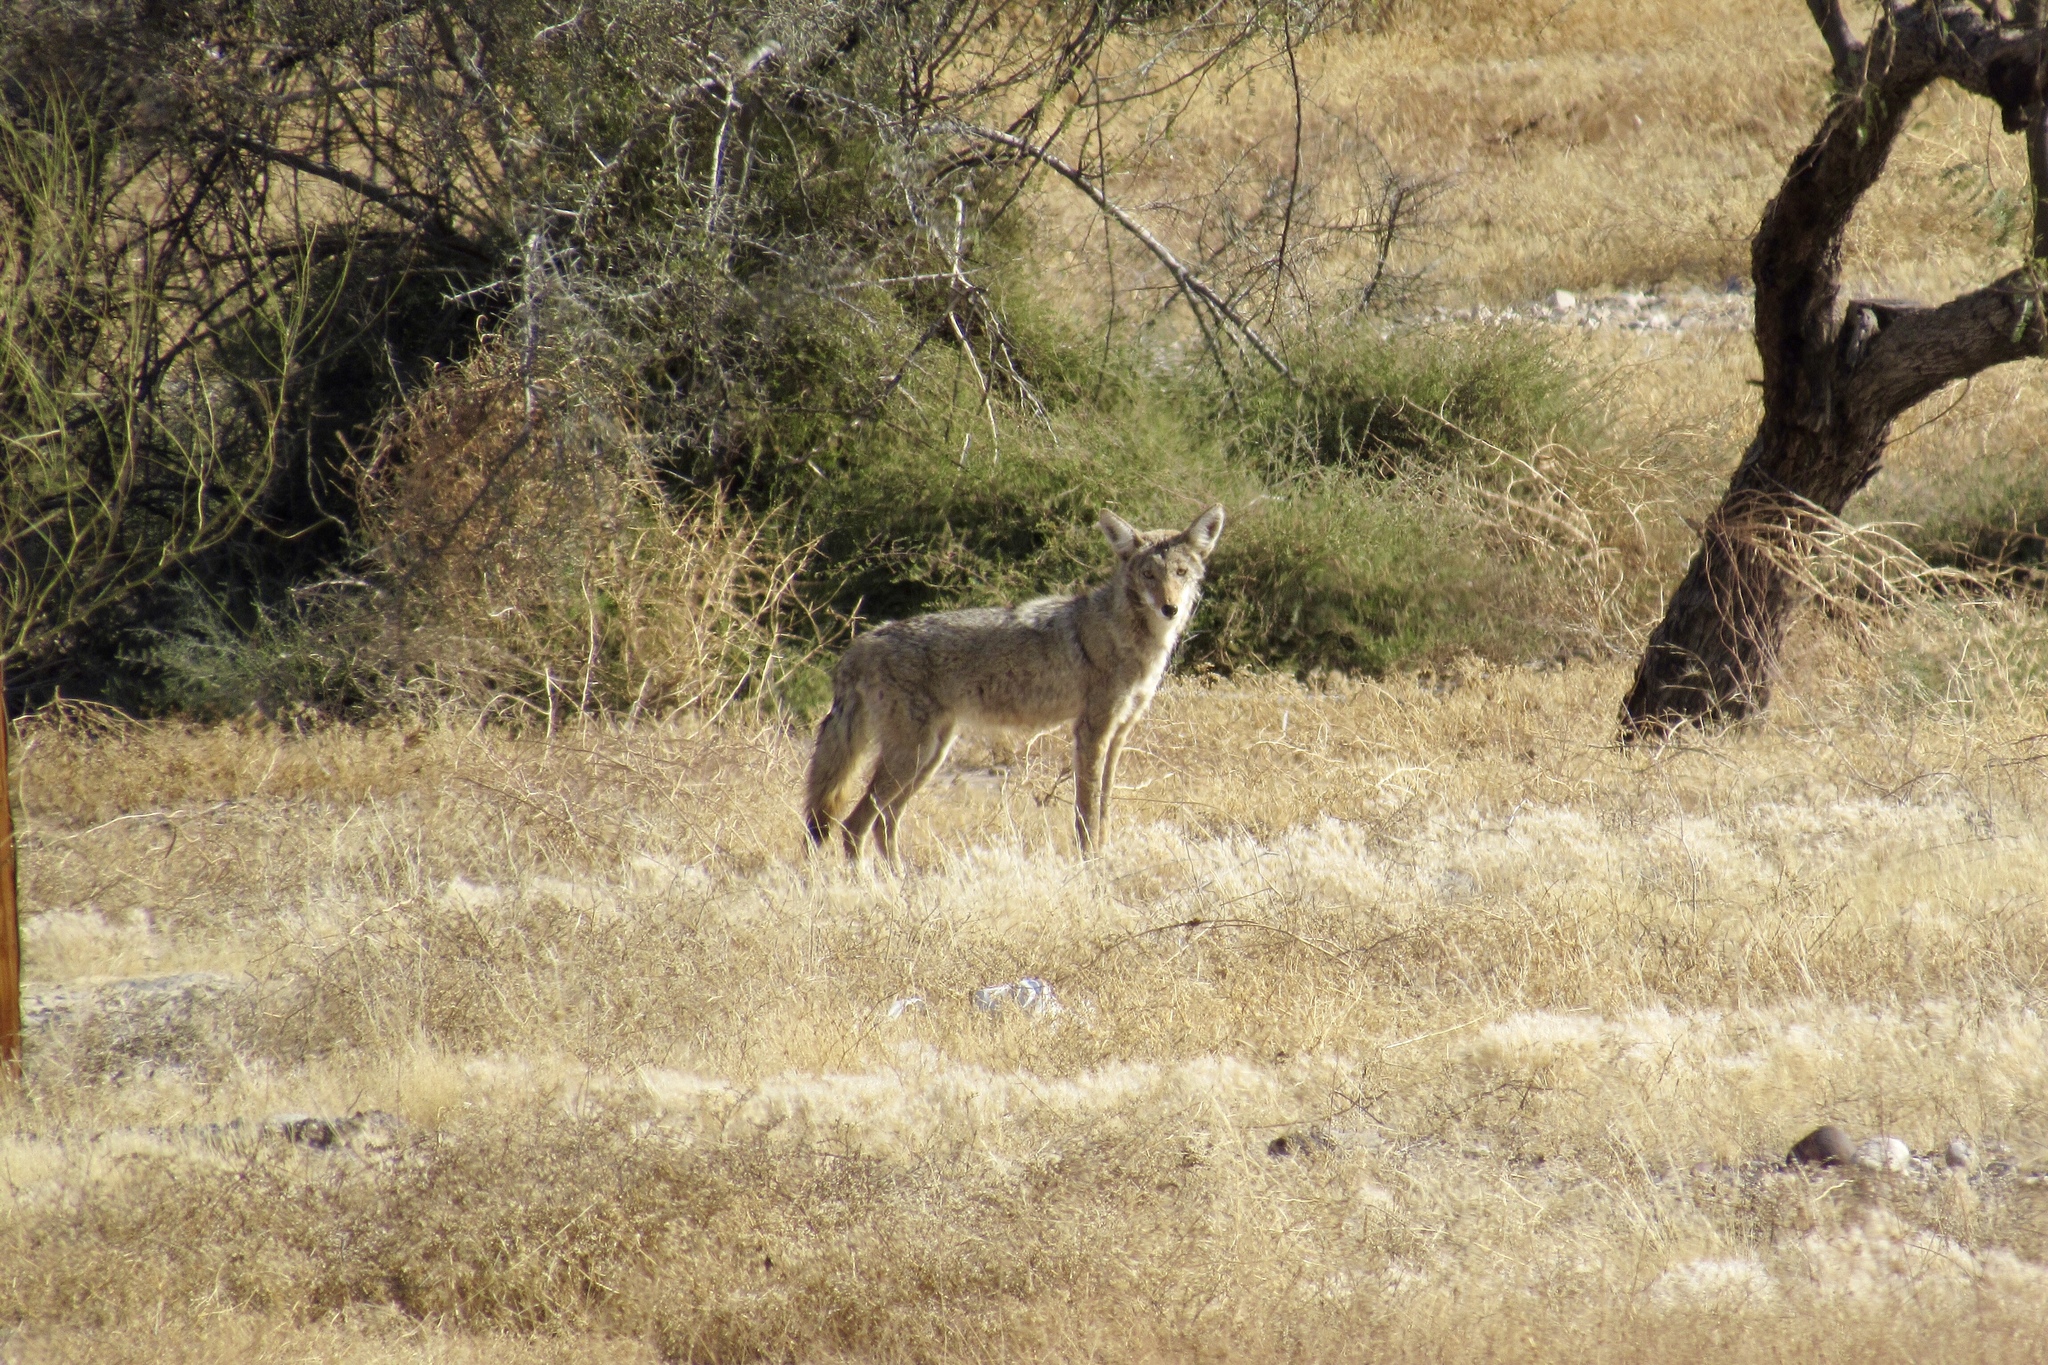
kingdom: Animalia
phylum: Chordata
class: Mammalia
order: Carnivora
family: Canidae
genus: Canis
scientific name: Canis latrans
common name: Coyote
